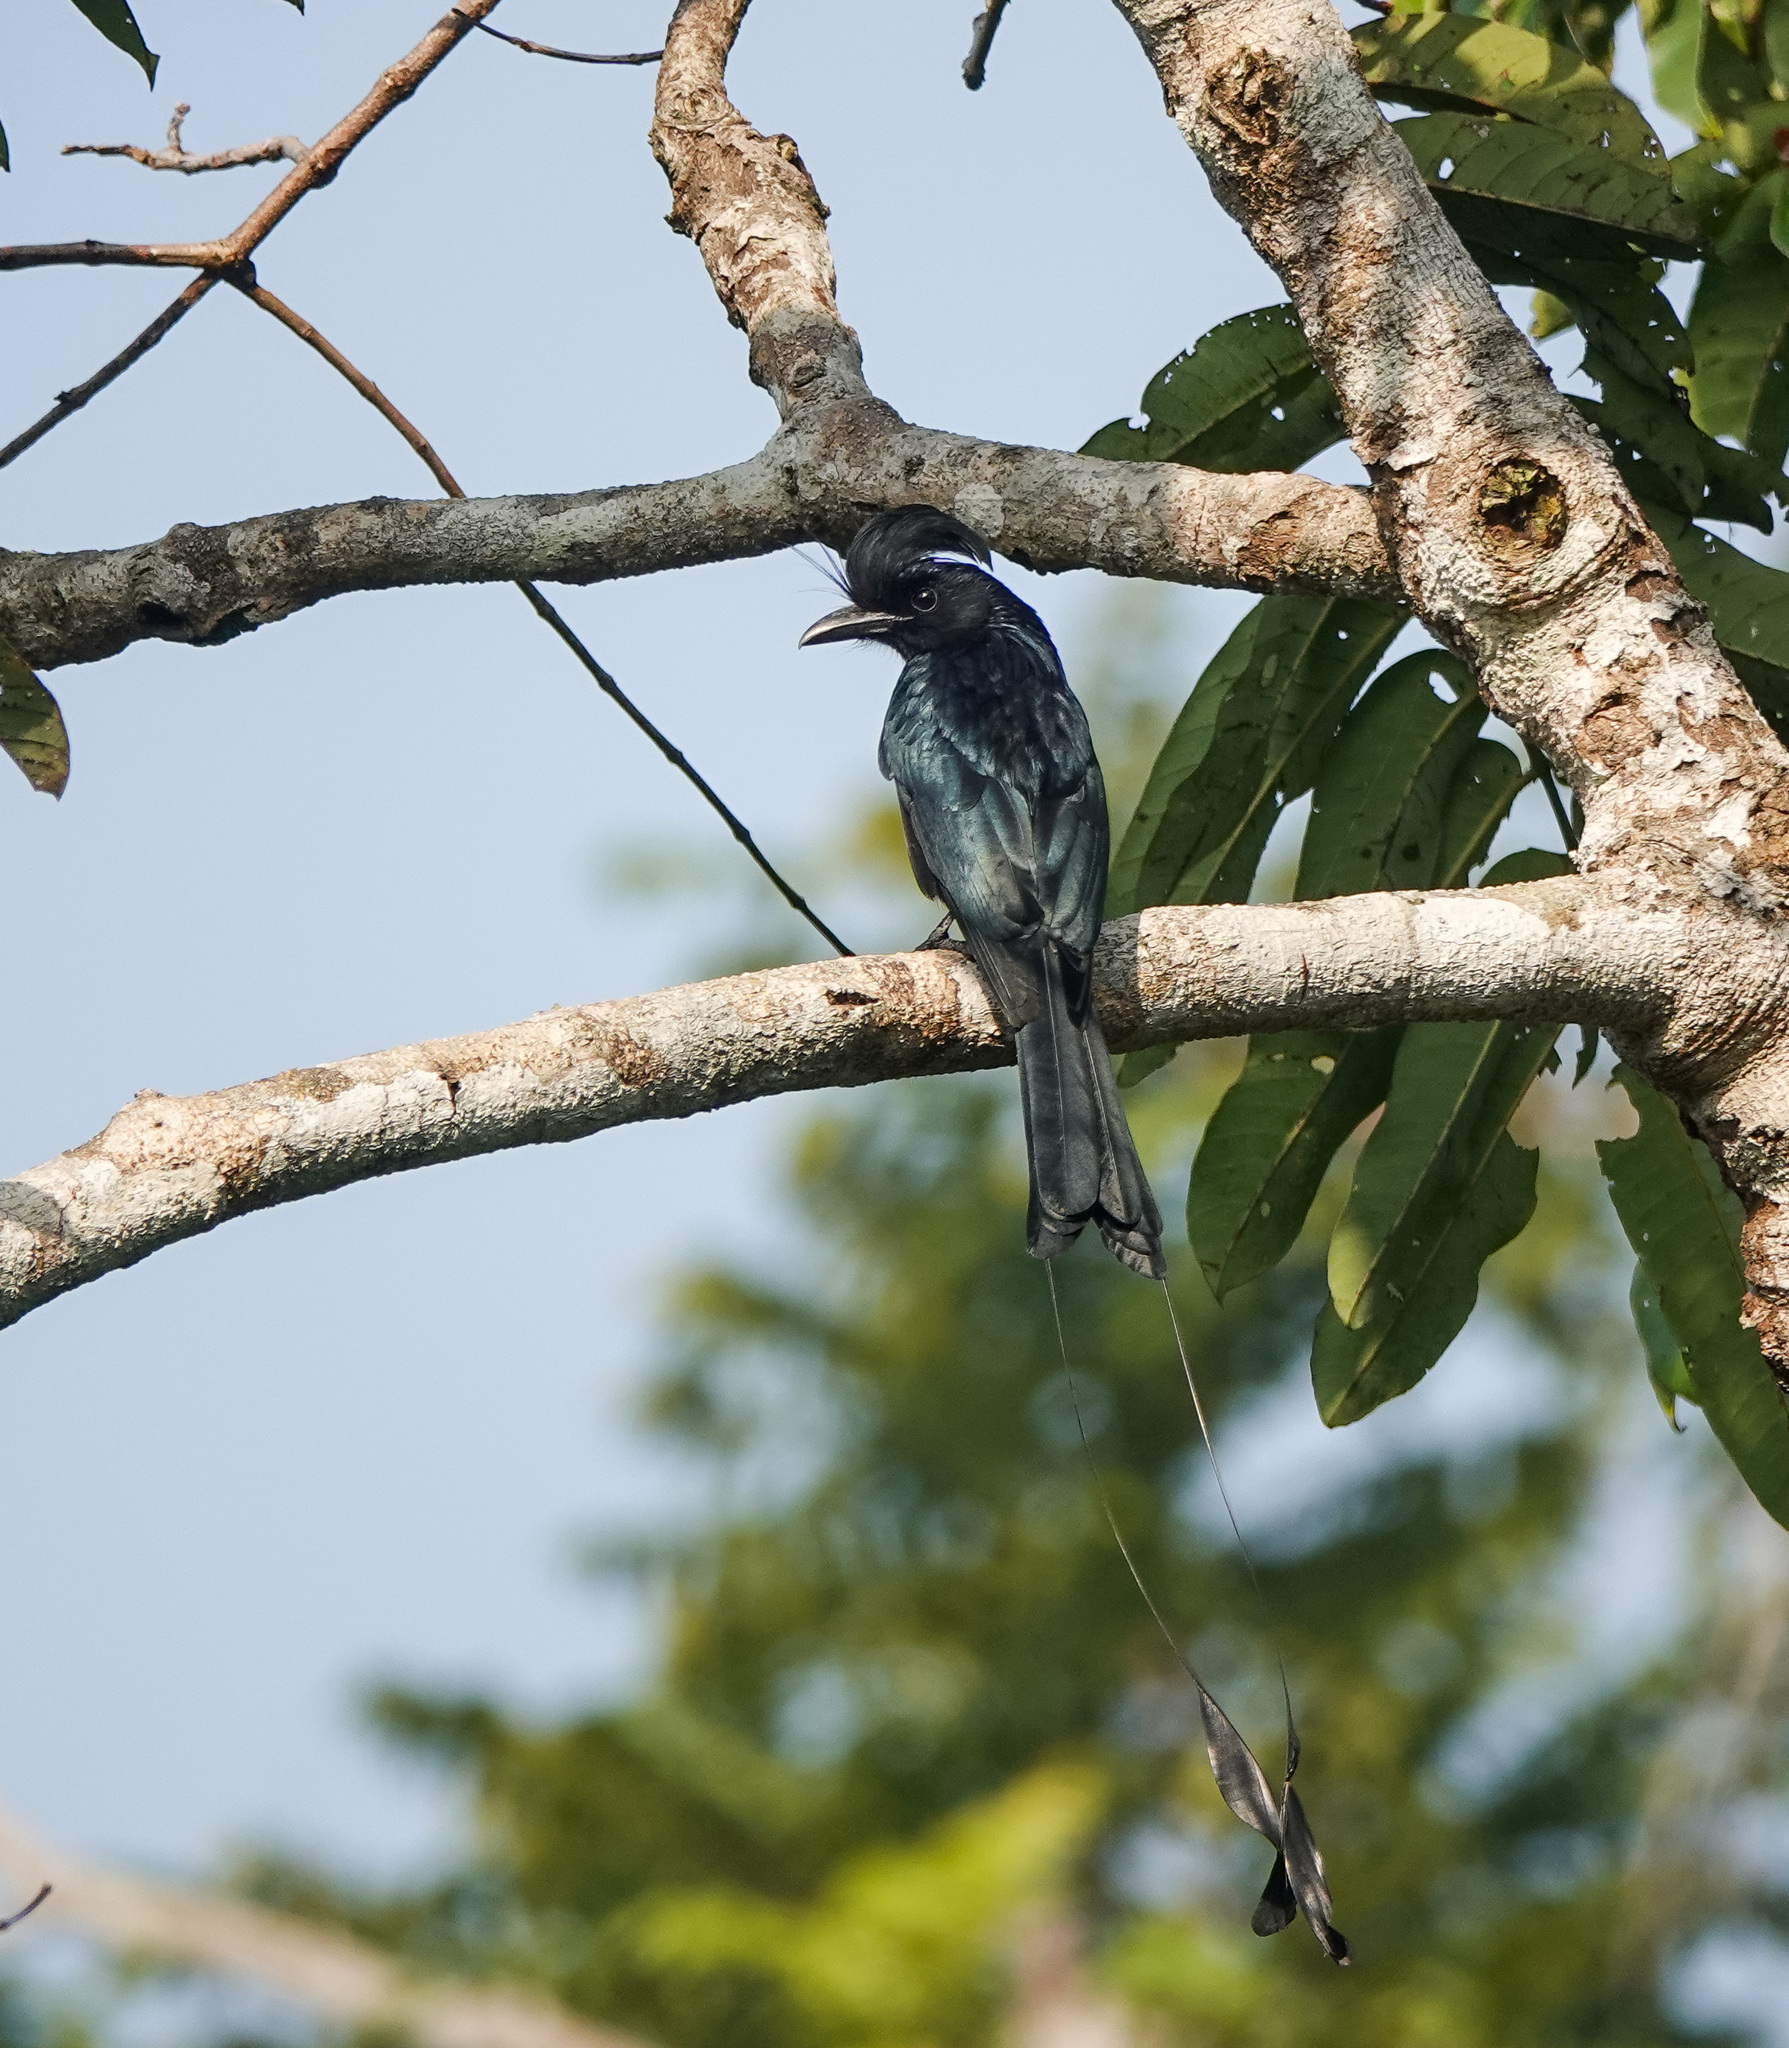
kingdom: Animalia
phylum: Chordata
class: Aves
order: Passeriformes
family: Dicruridae
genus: Dicrurus
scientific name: Dicrurus paradiseus
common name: Greater racket-tailed drongo
